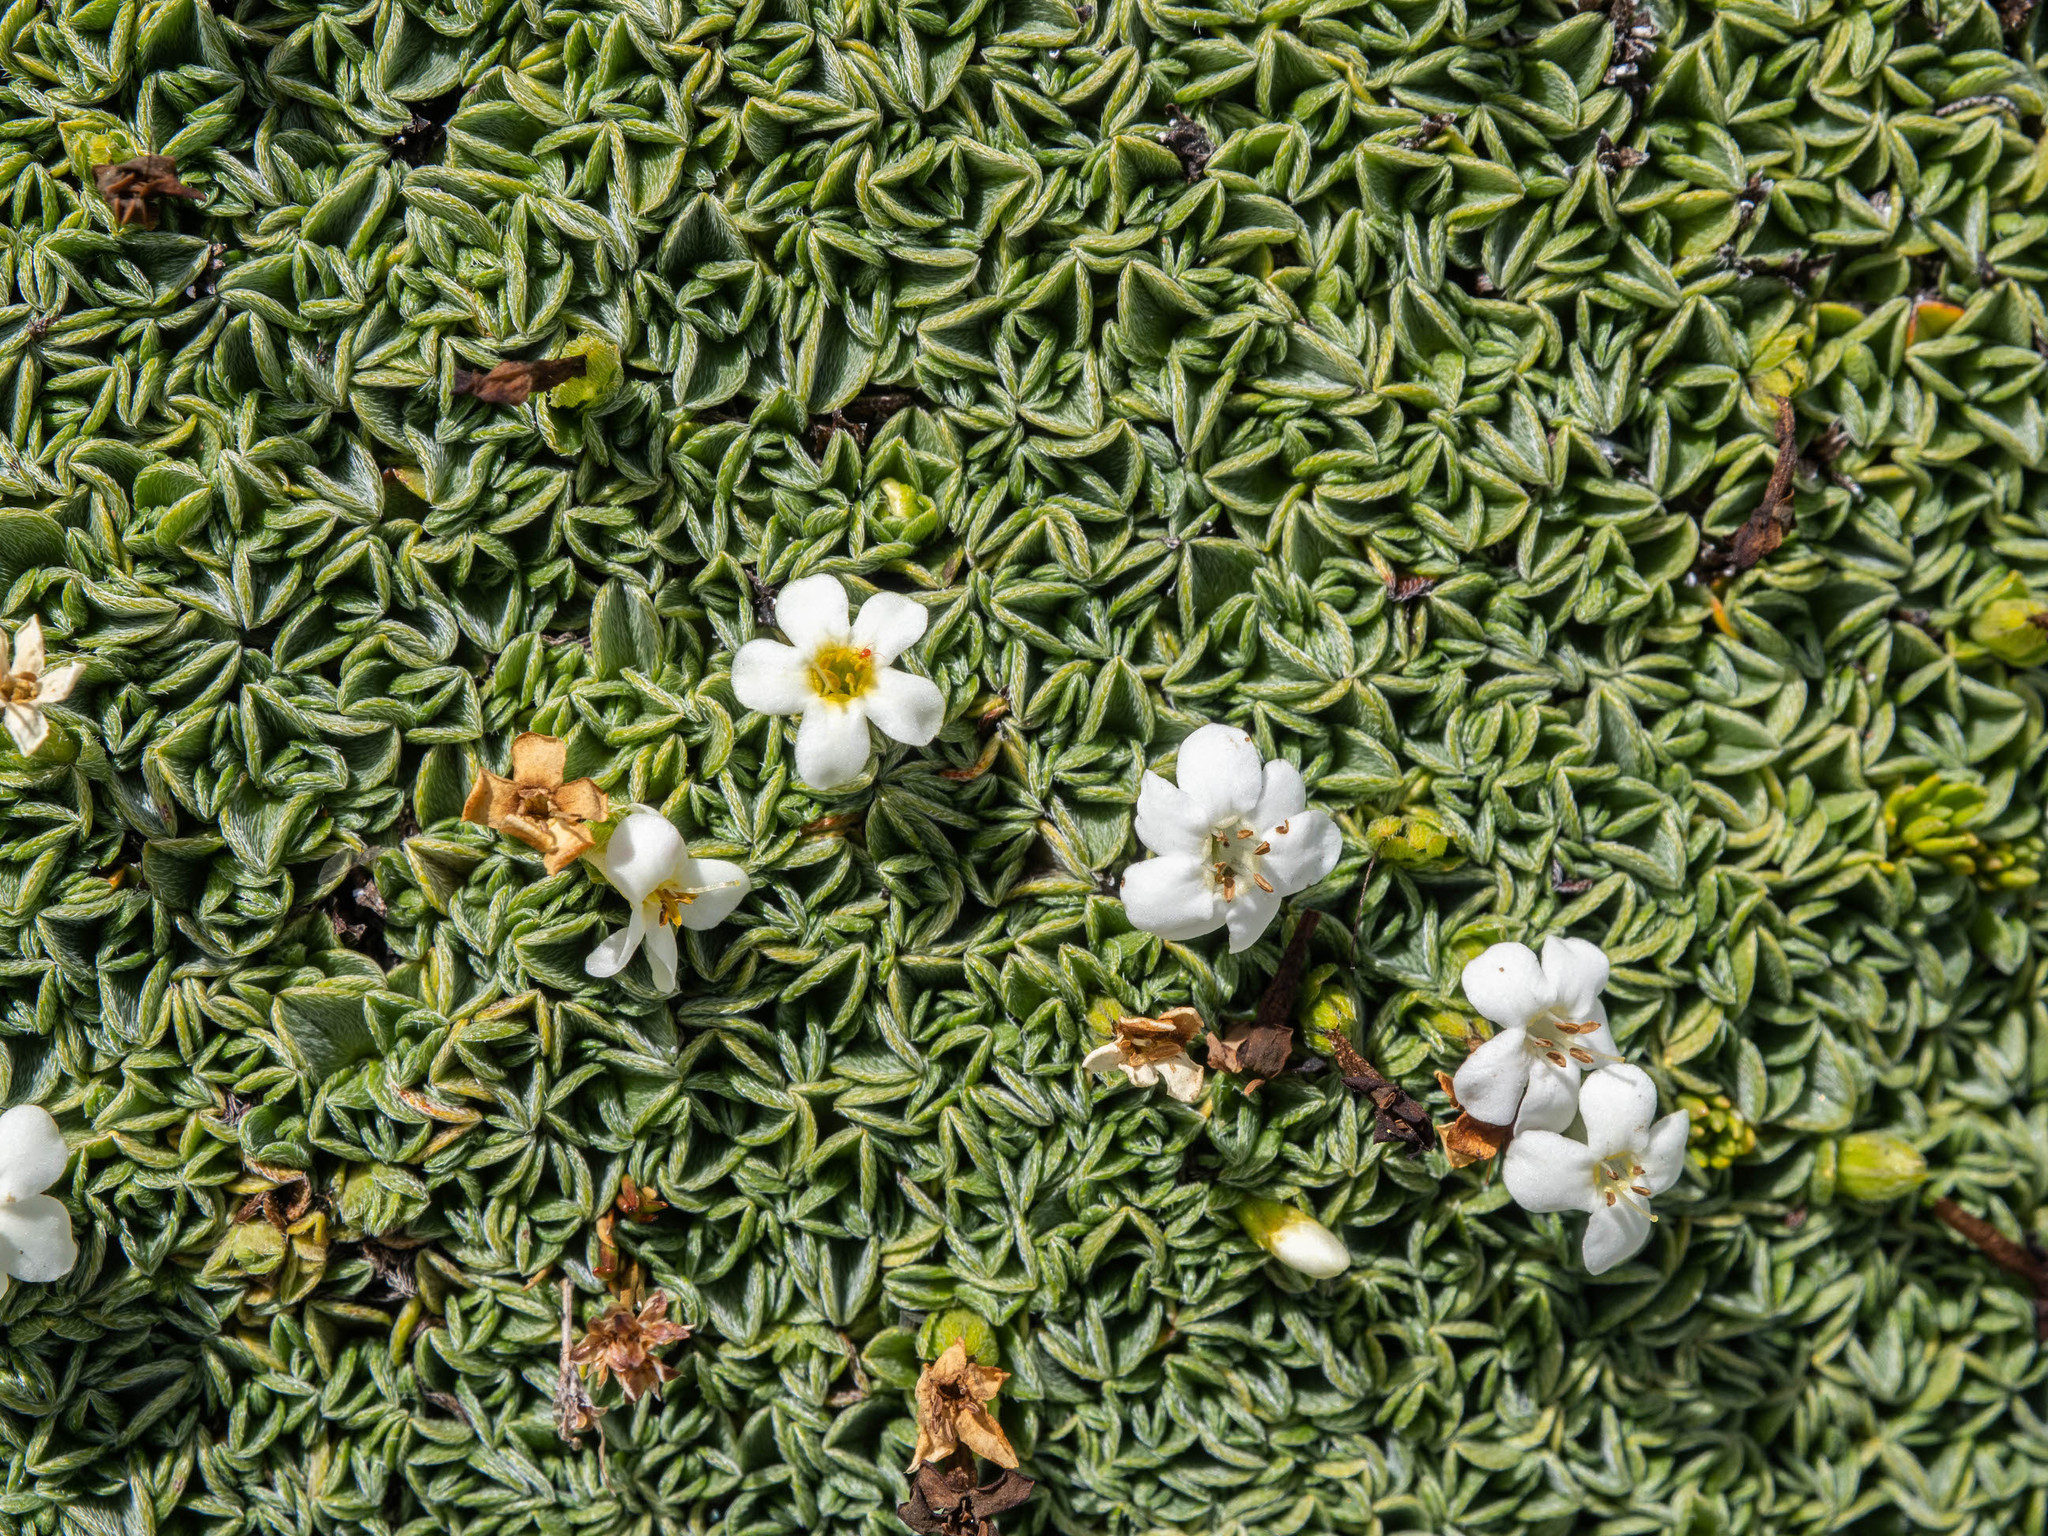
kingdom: Plantae
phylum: Tracheophyta
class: Magnoliopsida
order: Boraginales
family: Boraginaceae
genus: Myosotis
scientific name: Myosotis glabrescens
